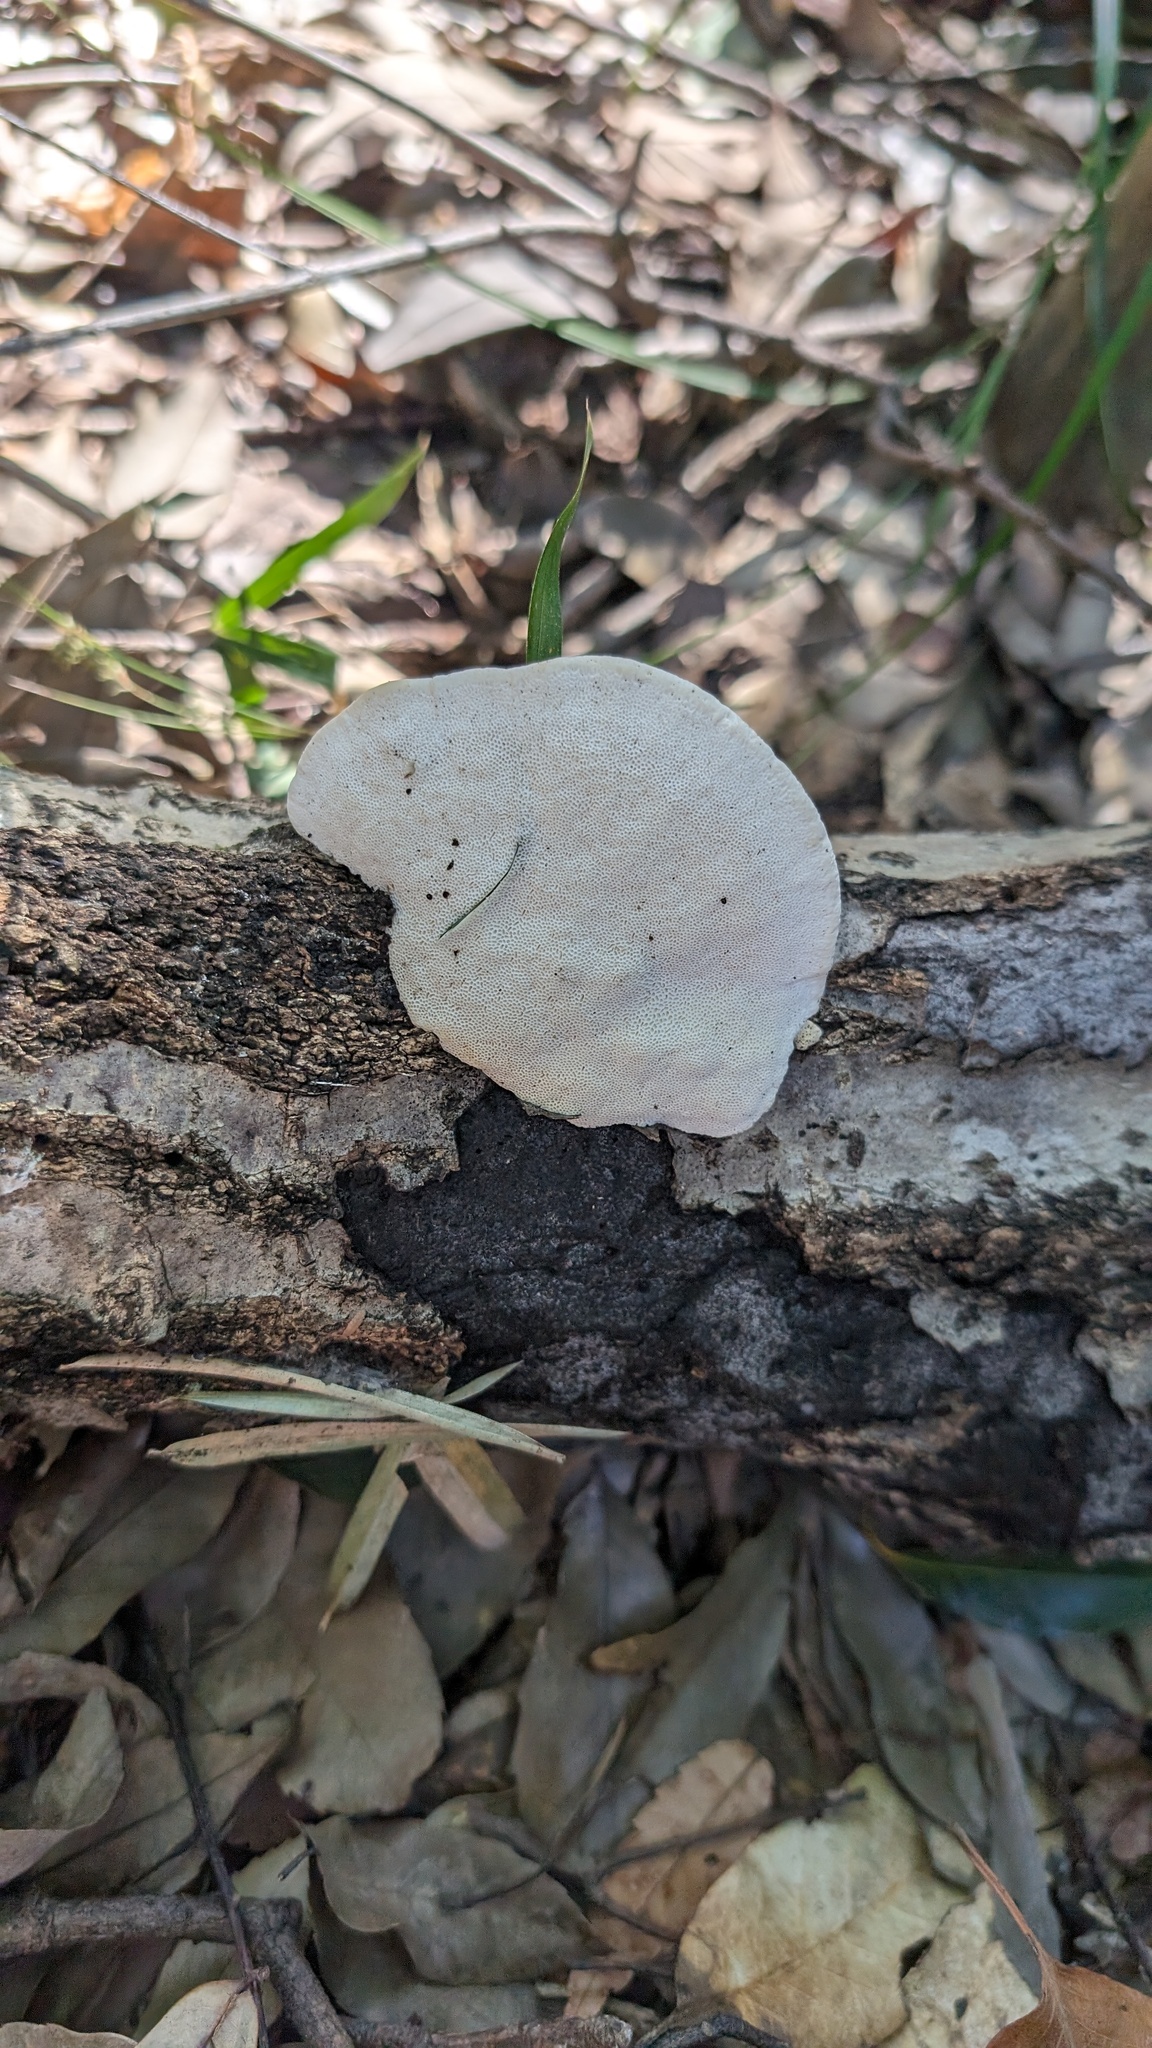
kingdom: Fungi
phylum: Basidiomycota
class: Agaricomycetes
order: Polyporales
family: Polyporaceae
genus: Trametes
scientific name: Trametes orientalis
